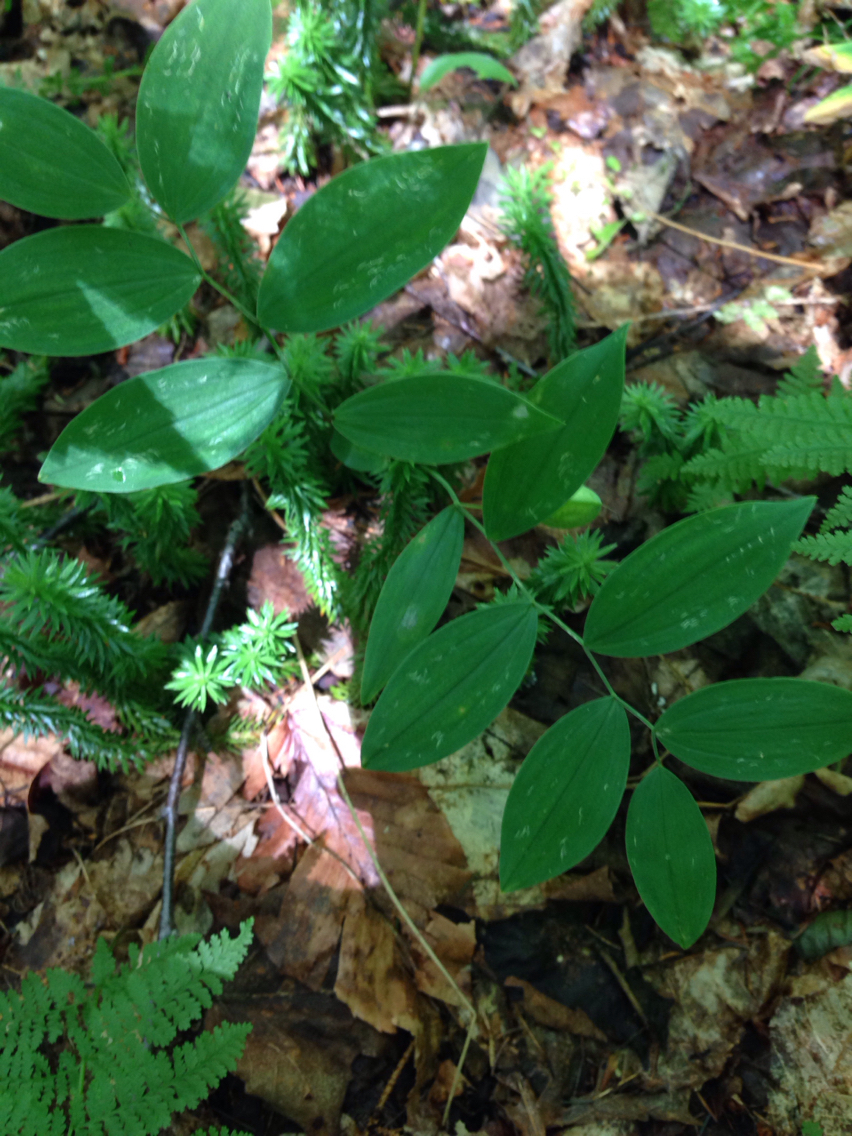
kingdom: Plantae
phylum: Tracheophyta
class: Liliopsida
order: Liliales
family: Colchicaceae
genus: Uvularia
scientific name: Uvularia sessilifolia
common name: Straw-lily
